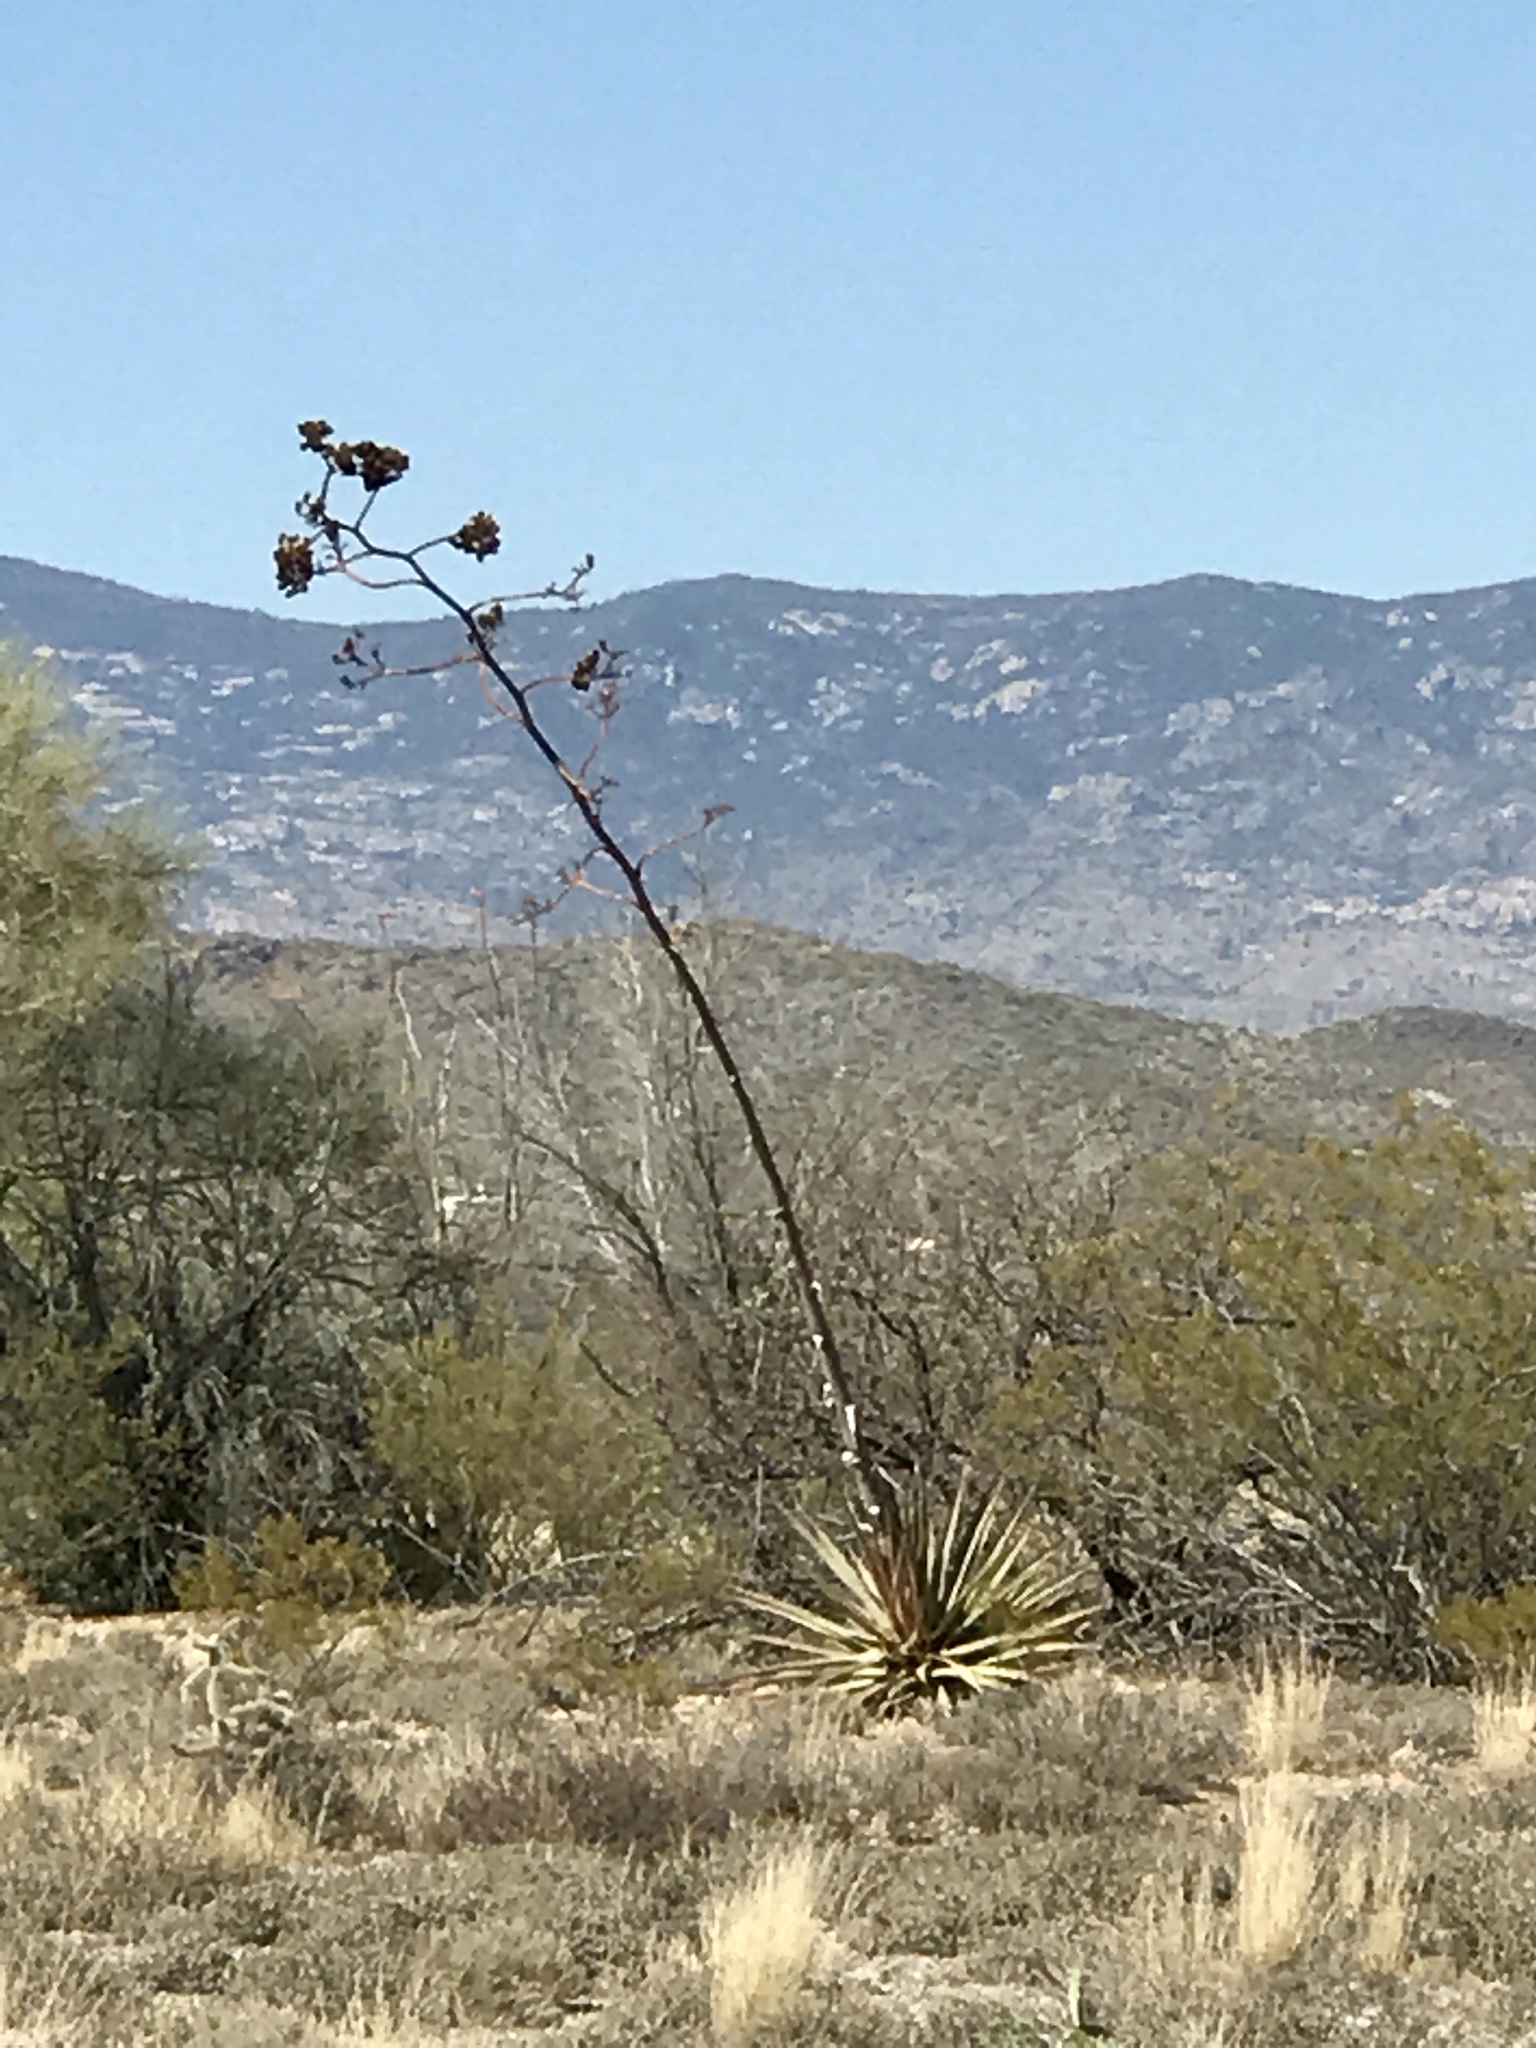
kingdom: Plantae
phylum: Tracheophyta
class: Liliopsida
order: Asparagales
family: Asparagaceae
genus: Agave
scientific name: Agave palmeri
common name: Palmer agave
